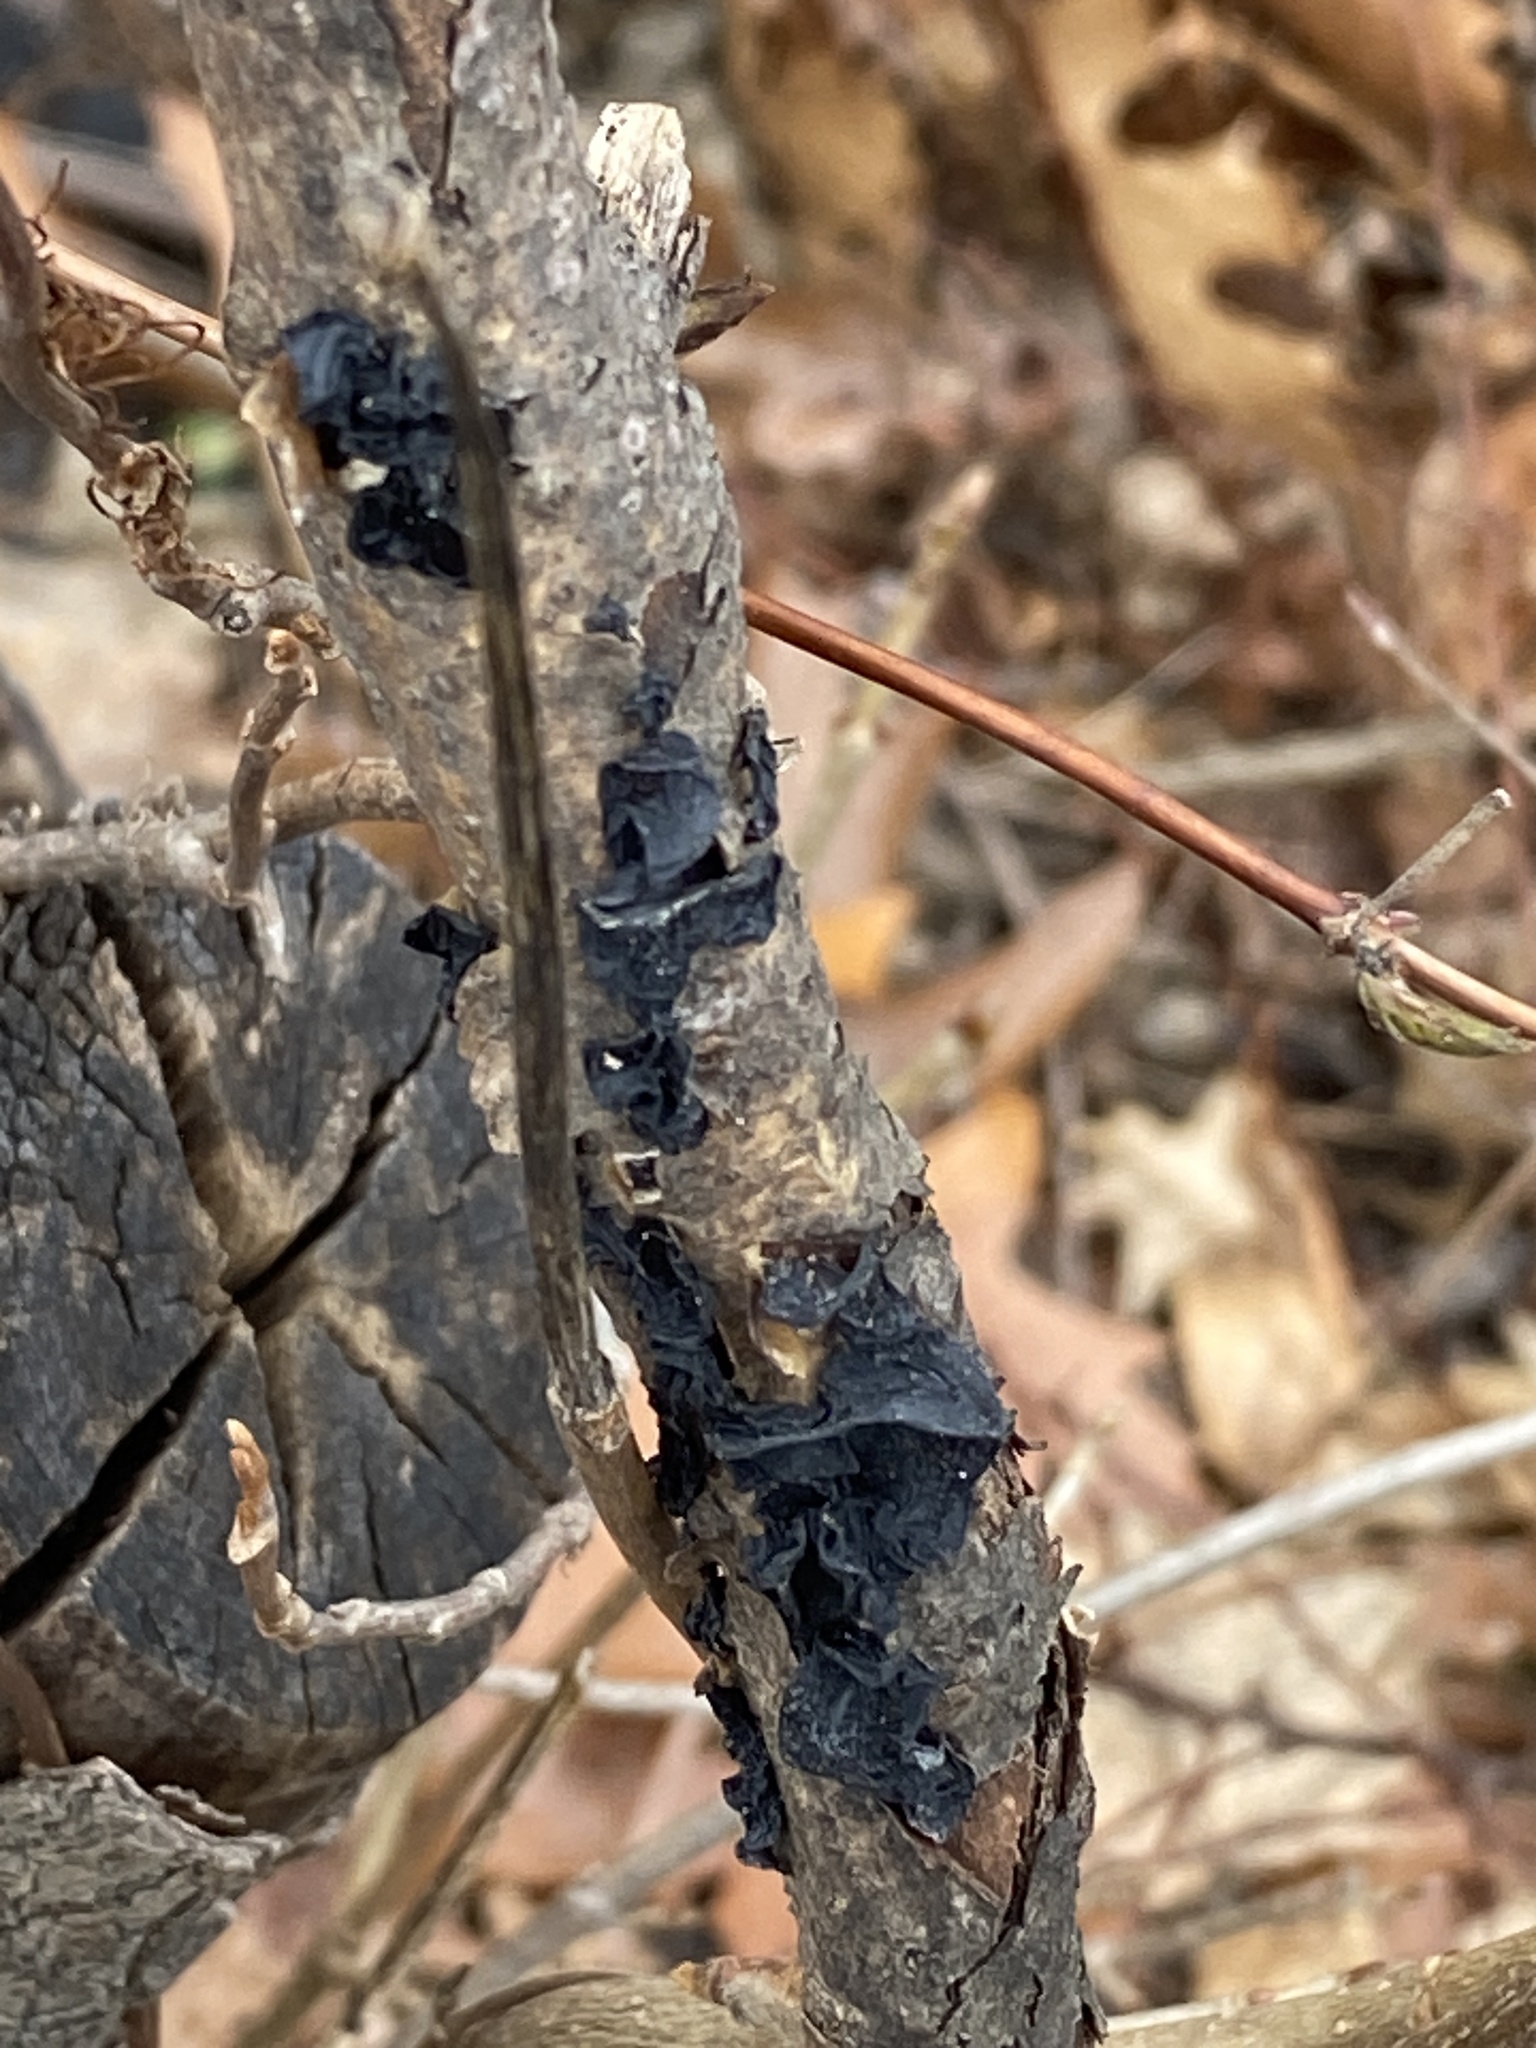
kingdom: Fungi
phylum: Basidiomycota
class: Agaricomycetes
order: Auriculariales
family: Auriculariaceae
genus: Exidia
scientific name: Exidia
